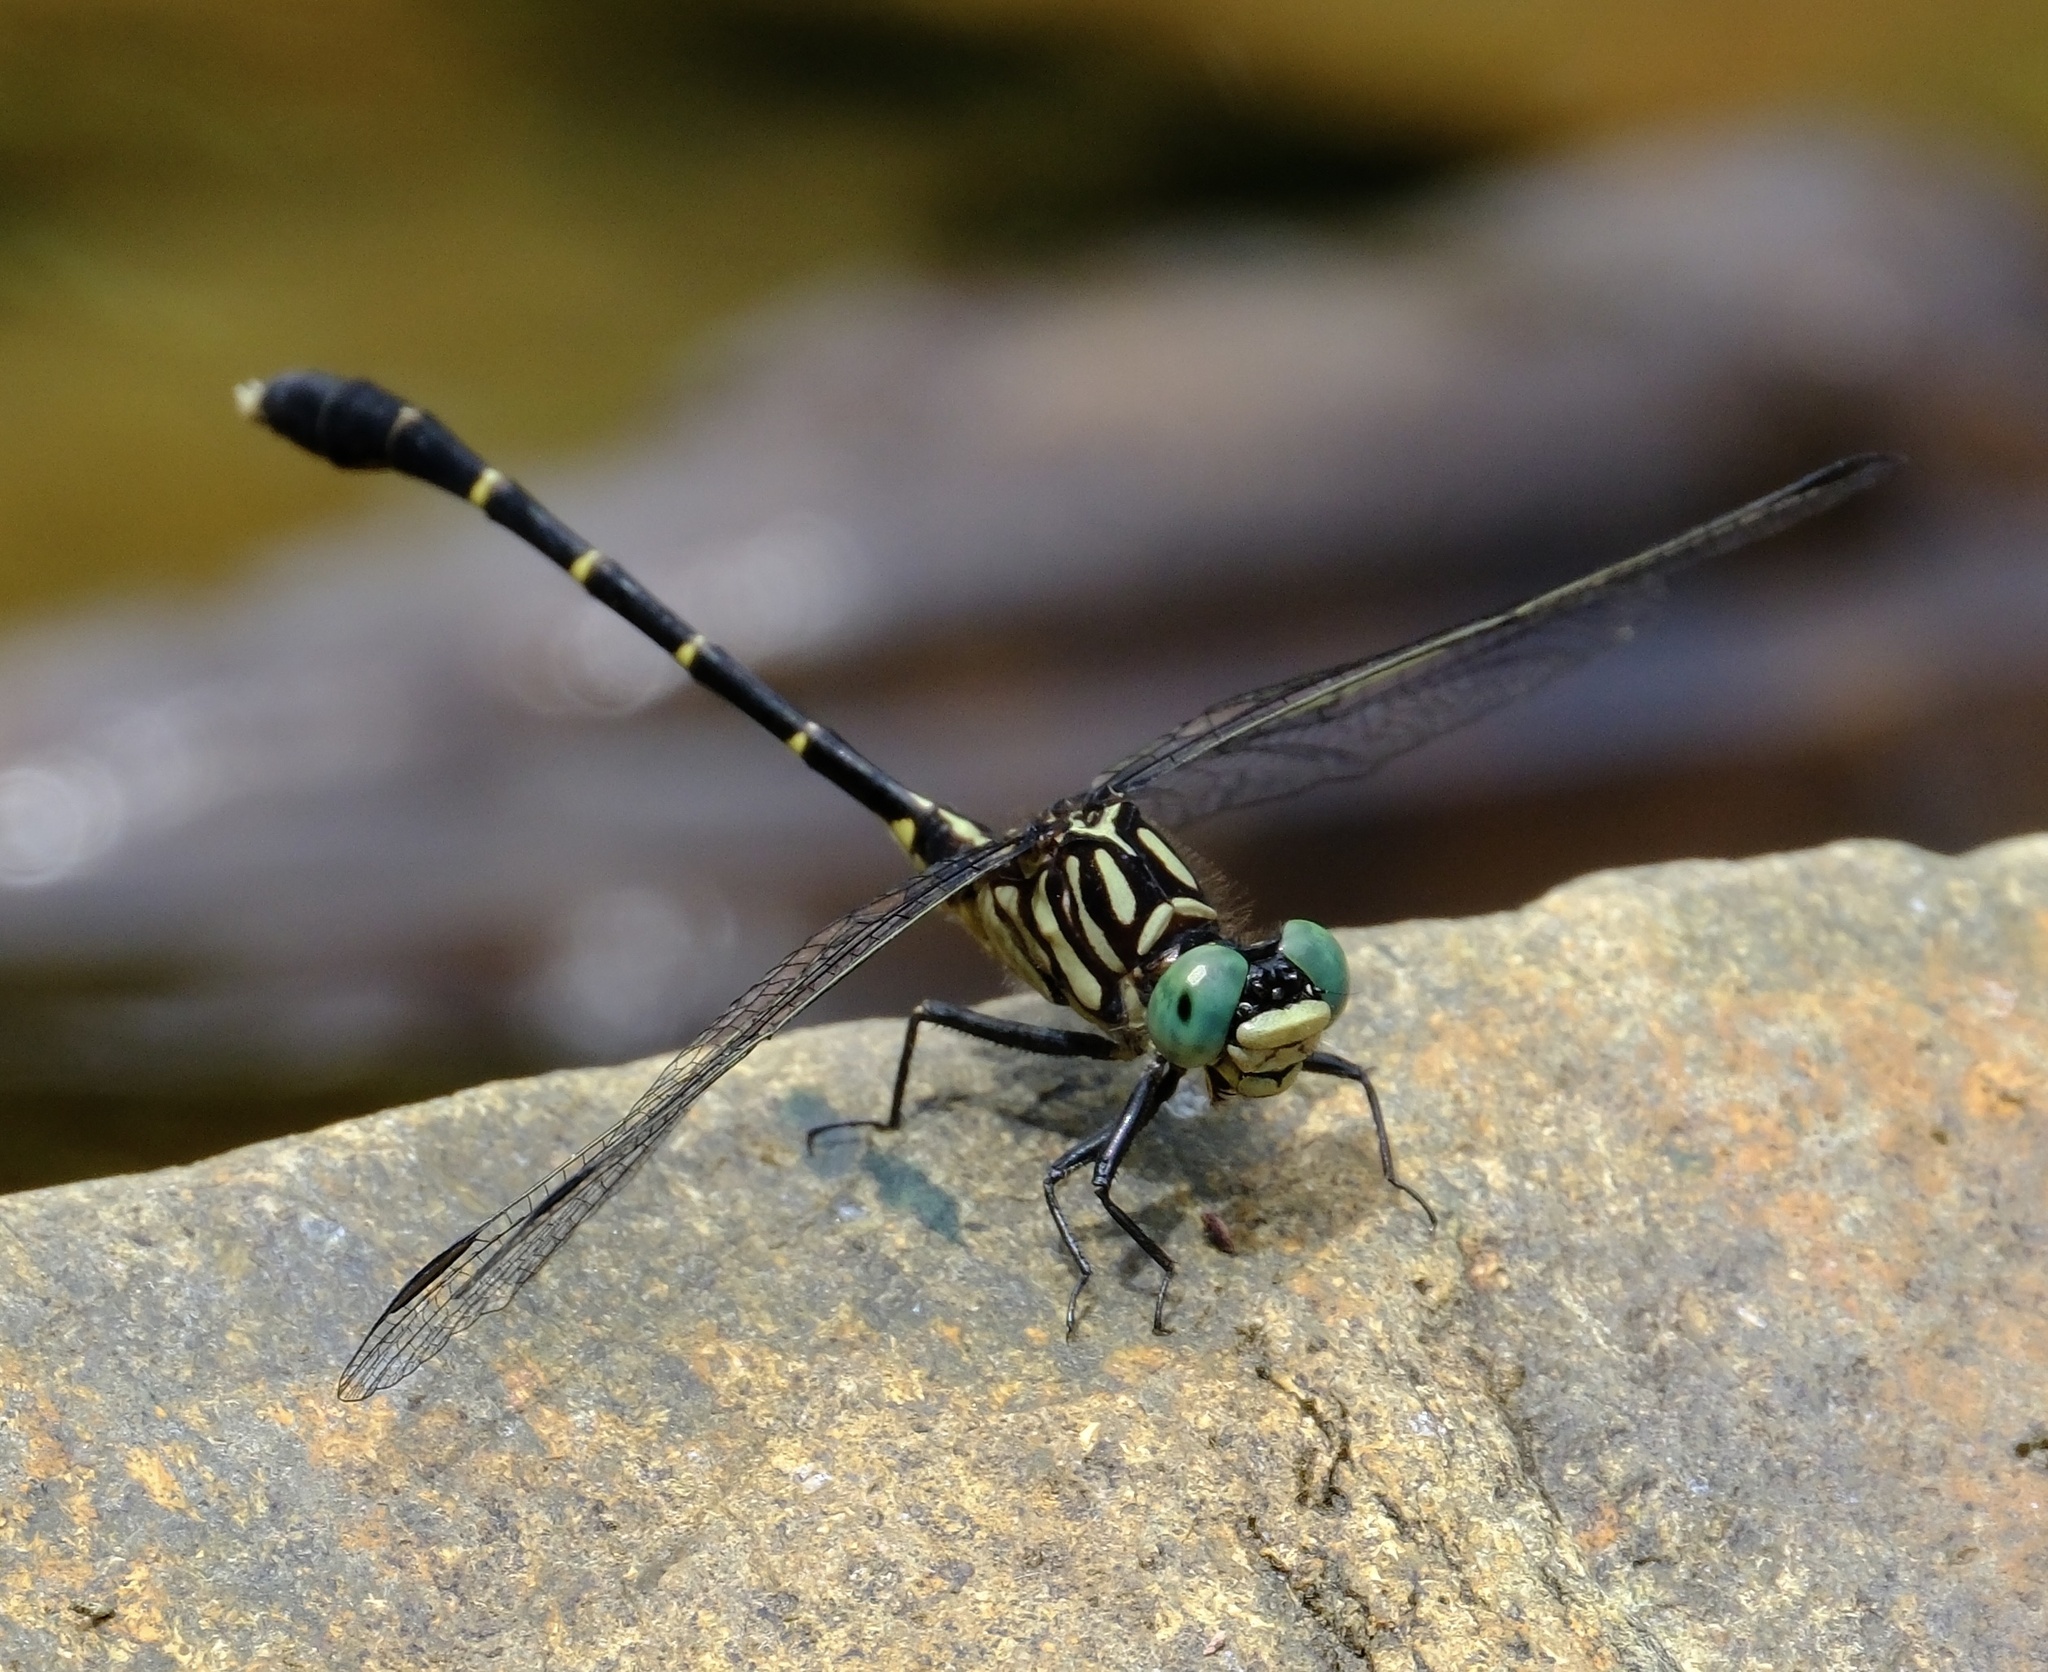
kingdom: Animalia
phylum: Arthropoda
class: Insecta
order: Odonata
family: Gomphidae
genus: Stylogomphus
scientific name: Stylogomphus sigmastylus
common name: Interior least clubtail
